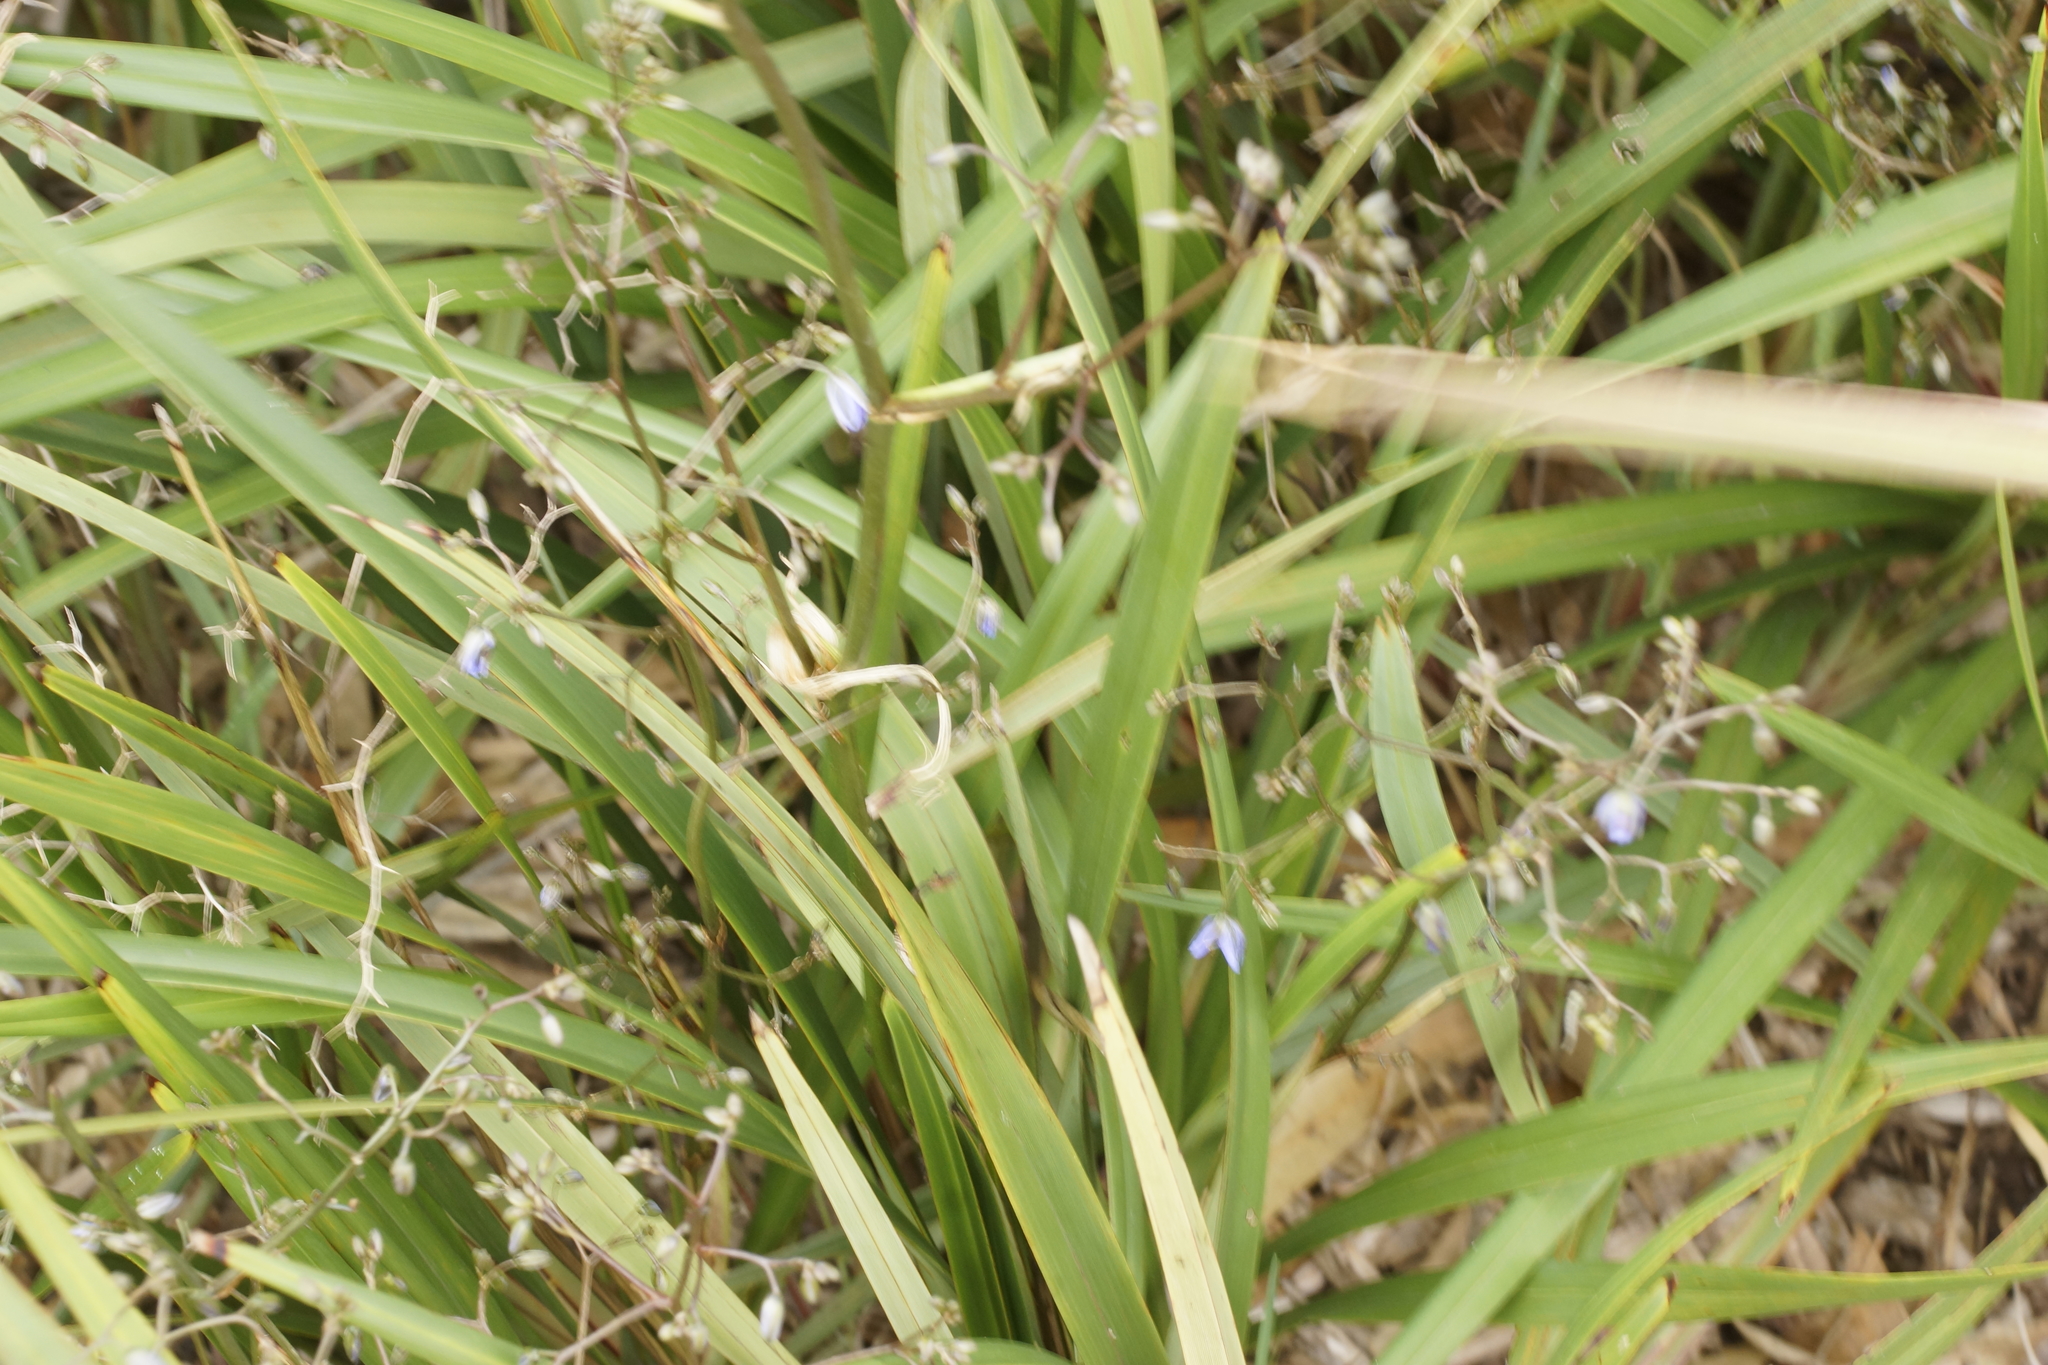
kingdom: Plantae
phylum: Tracheophyta
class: Liliopsida
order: Asparagales
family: Asphodelaceae
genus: Dianella
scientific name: Dianella brevicaulis
